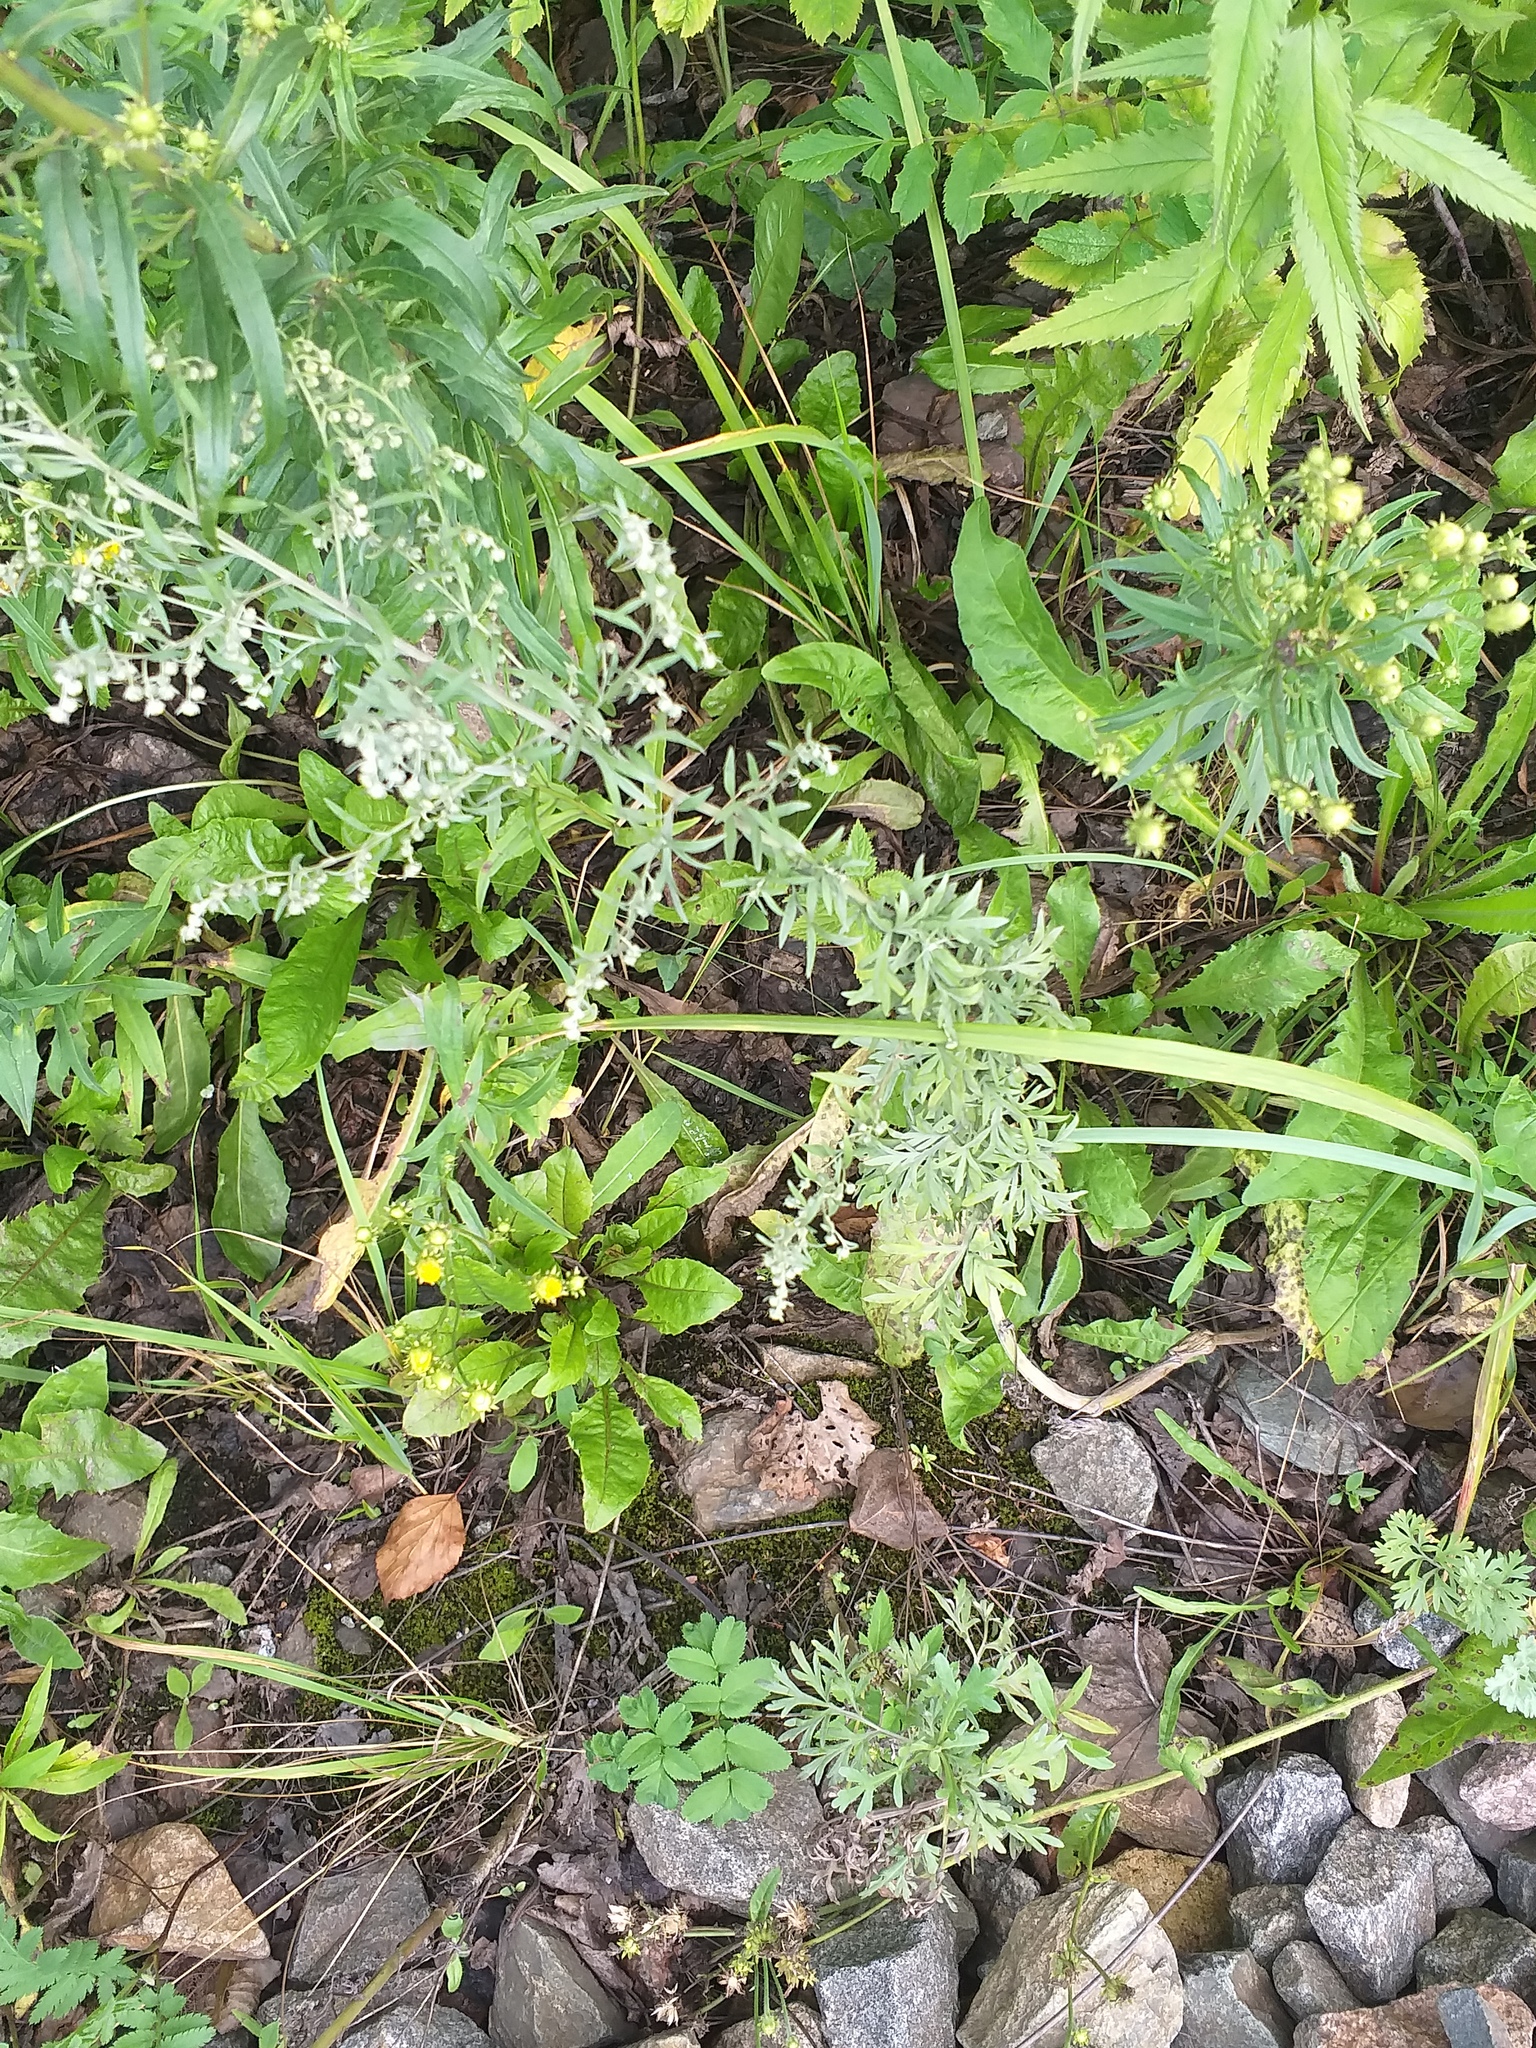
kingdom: Plantae
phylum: Tracheophyta
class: Magnoliopsida
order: Asterales
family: Asteraceae
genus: Artemisia
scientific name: Artemisia absinthium
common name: Wormwood
